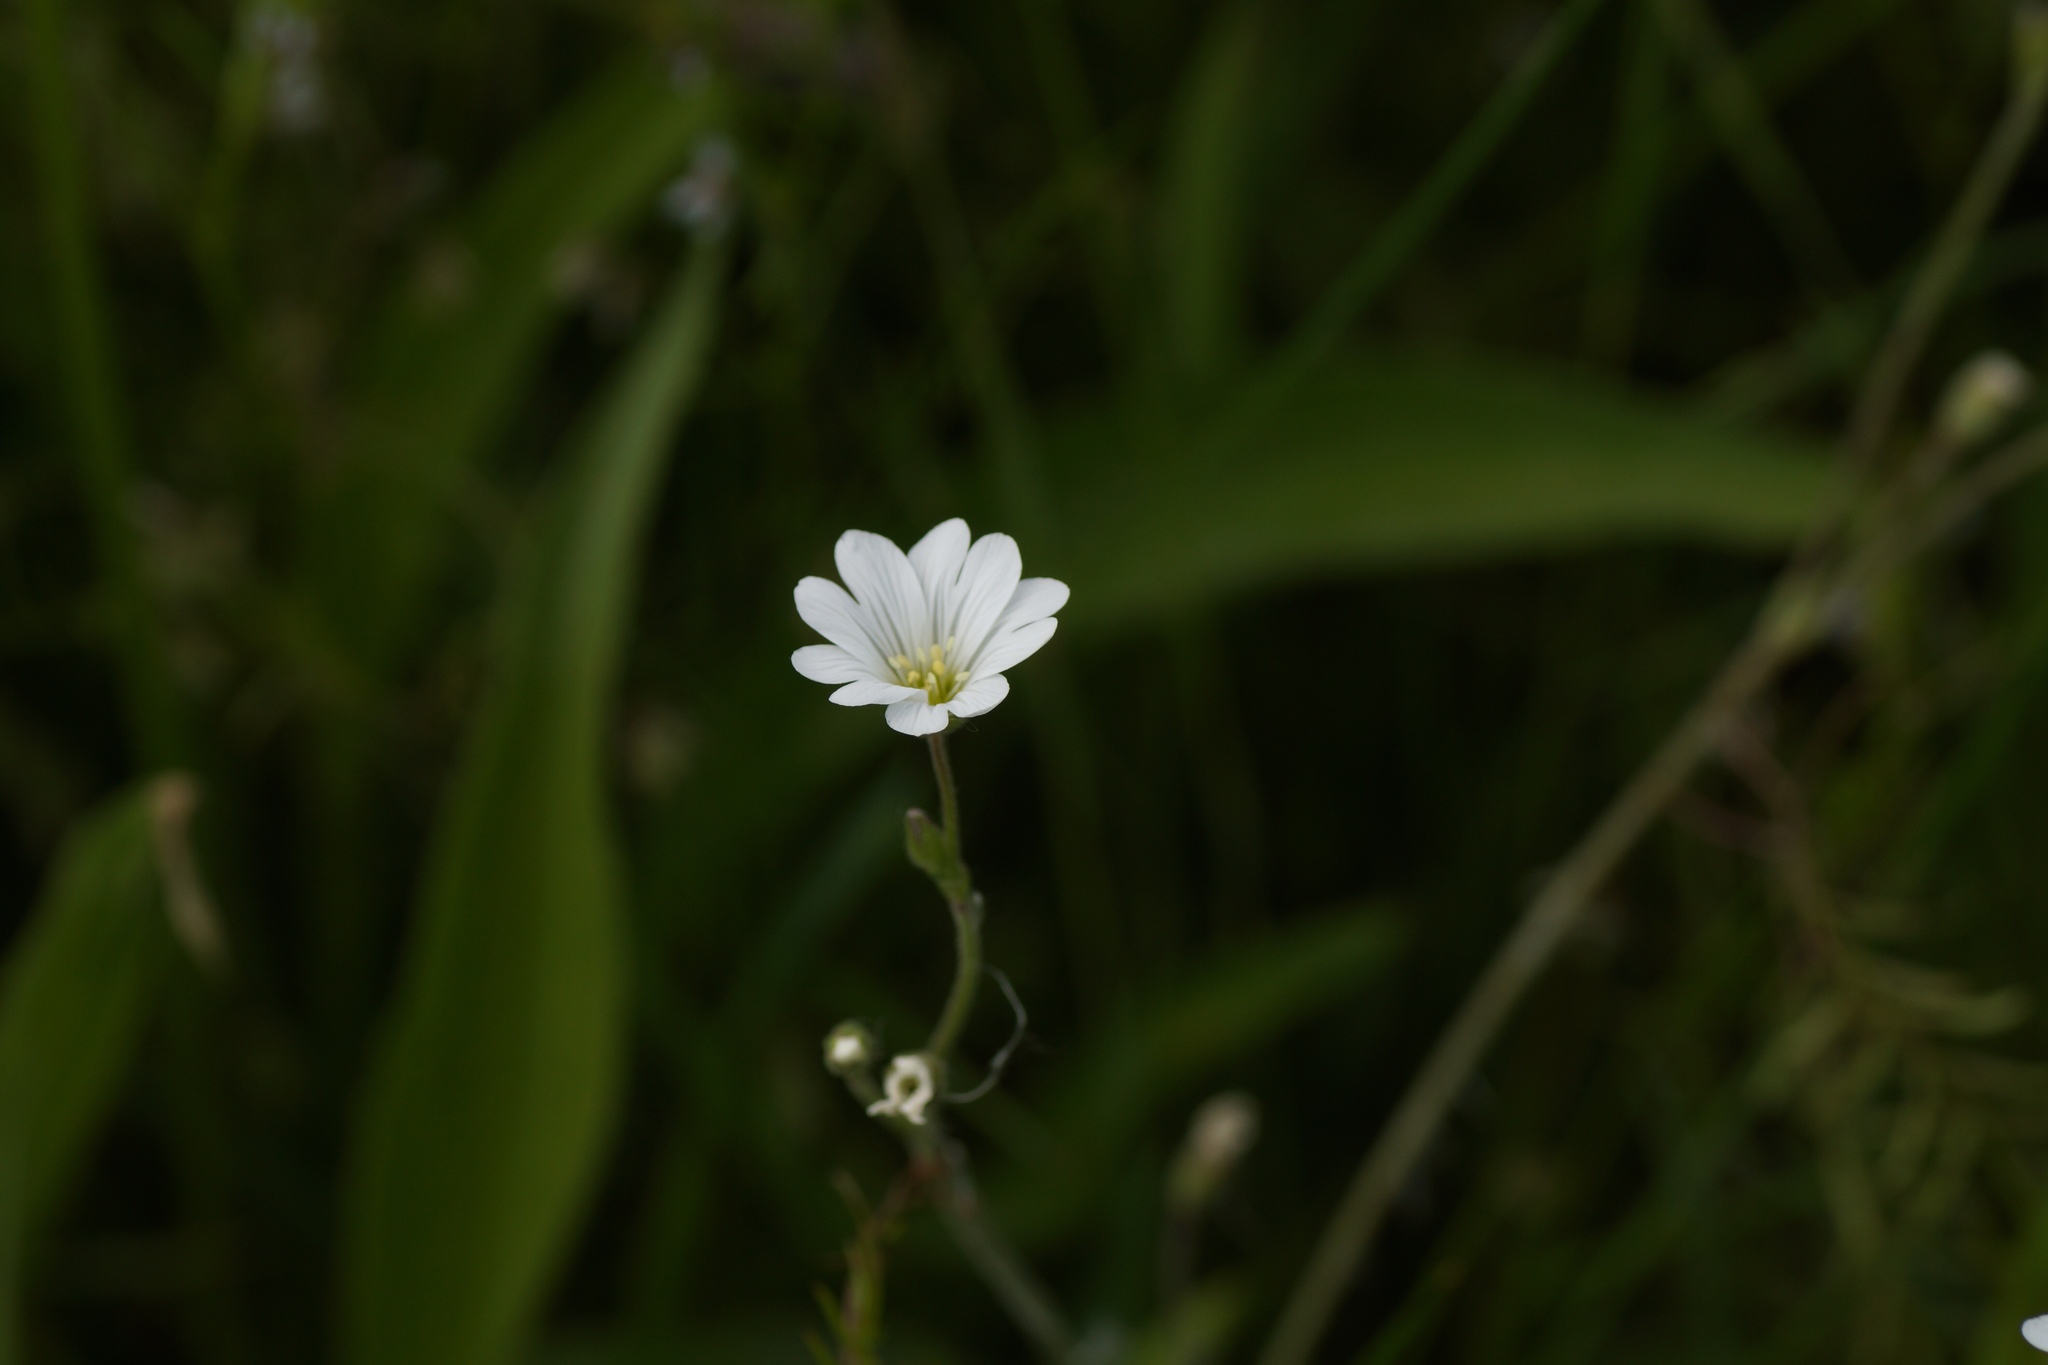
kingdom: Plantae
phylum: Tracheophyta
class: Magnoliopsida
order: Caryophyllales
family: Caryophyllaceae
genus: Rabelera
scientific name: Rabelera holostea
